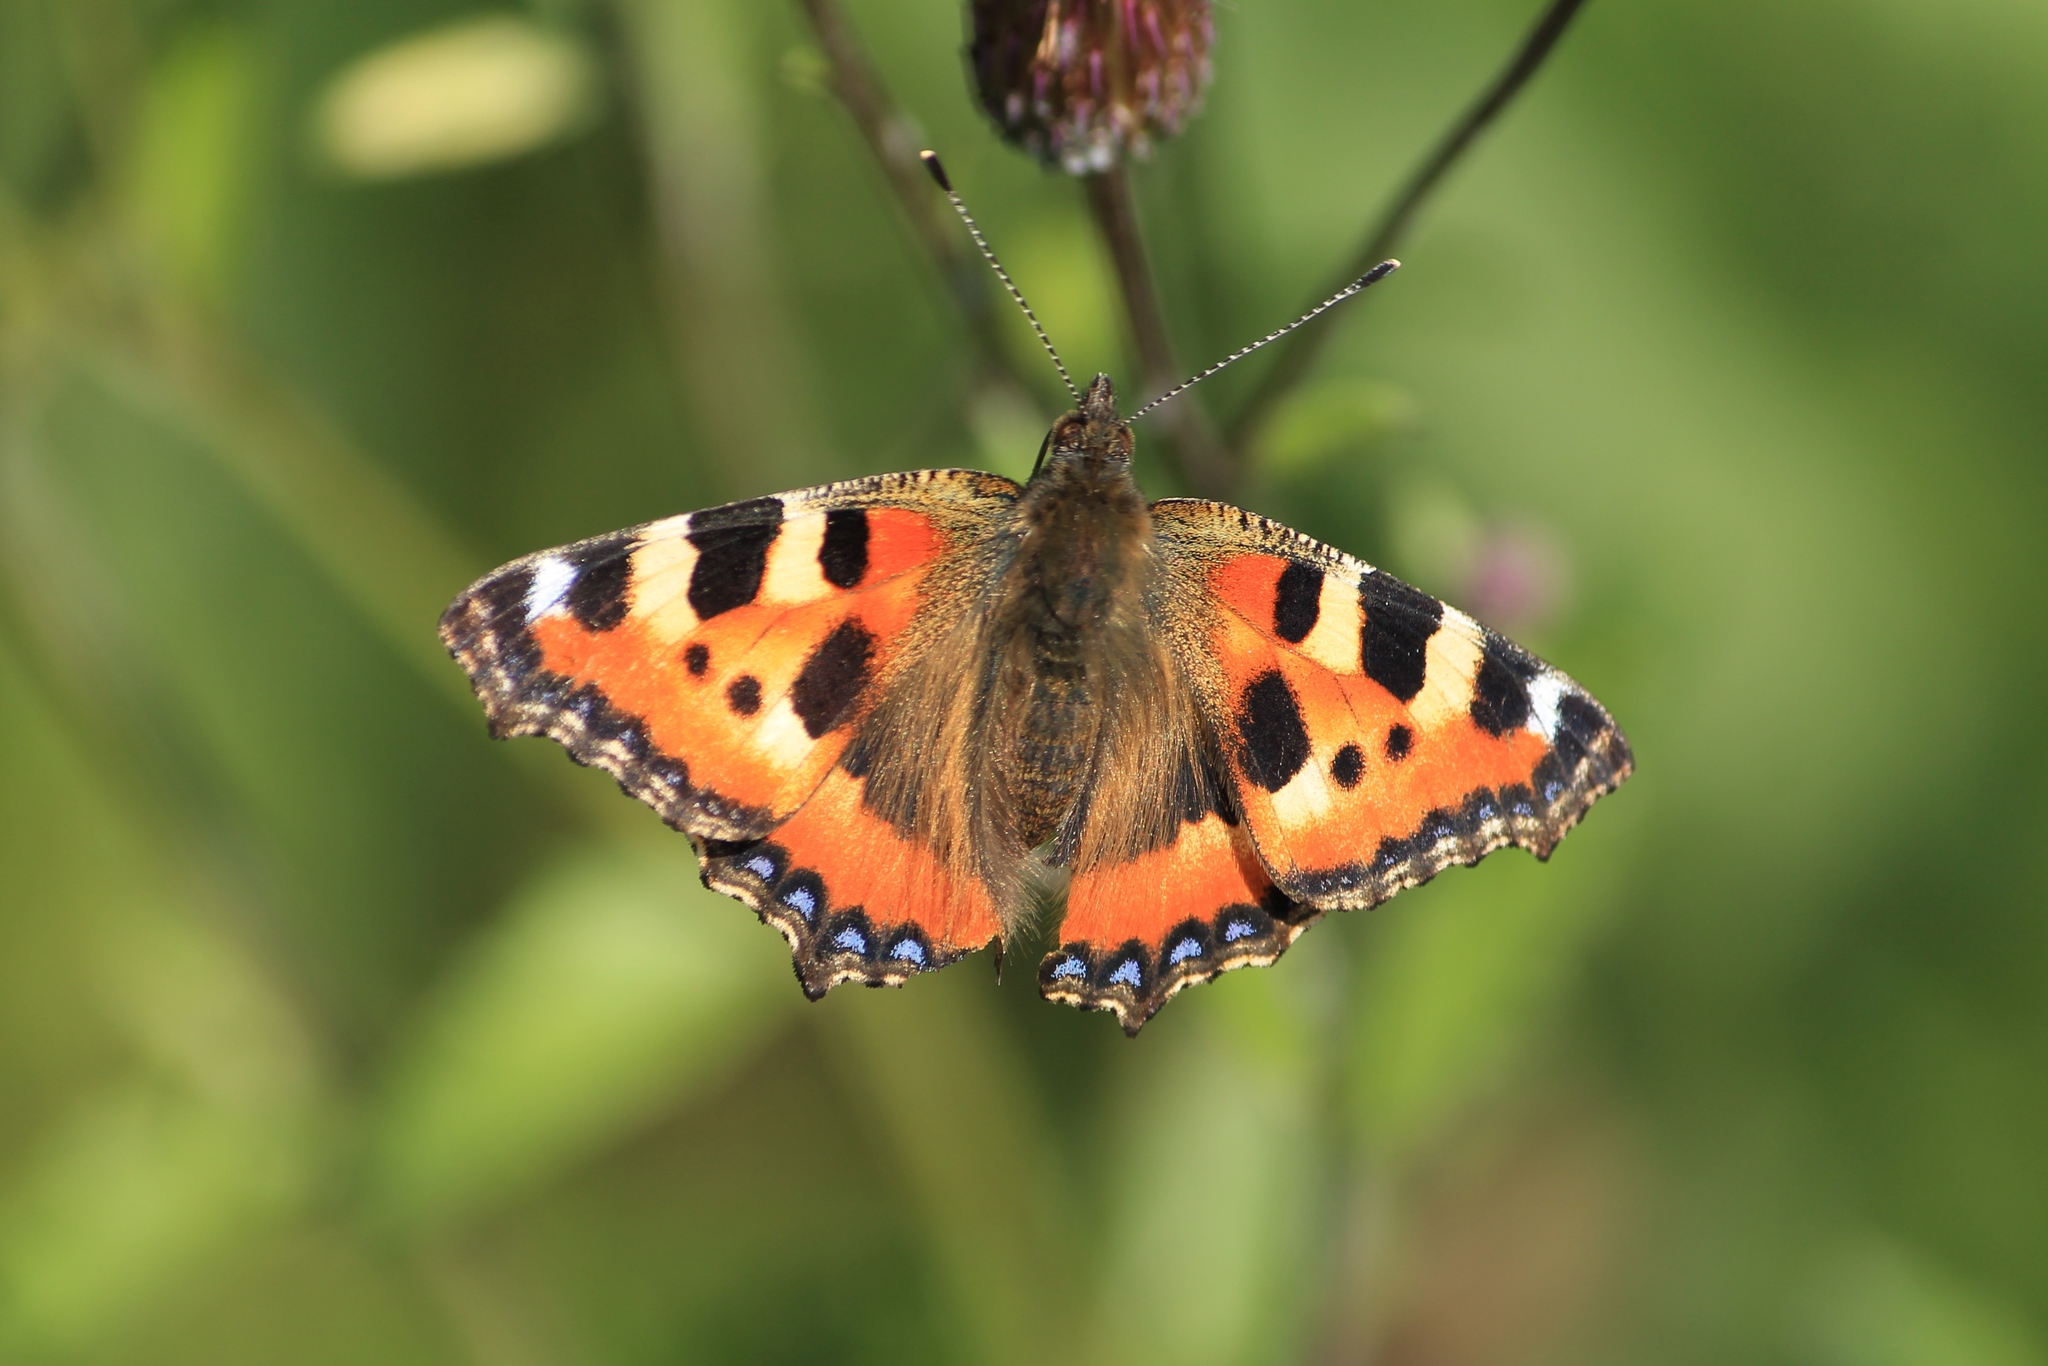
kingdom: Animalia
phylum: Arthropoda
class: Insecta
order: Lepidoptera
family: Nymphalidae
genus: Aglais
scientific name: Aglais urticae
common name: Small tortoiseshell
